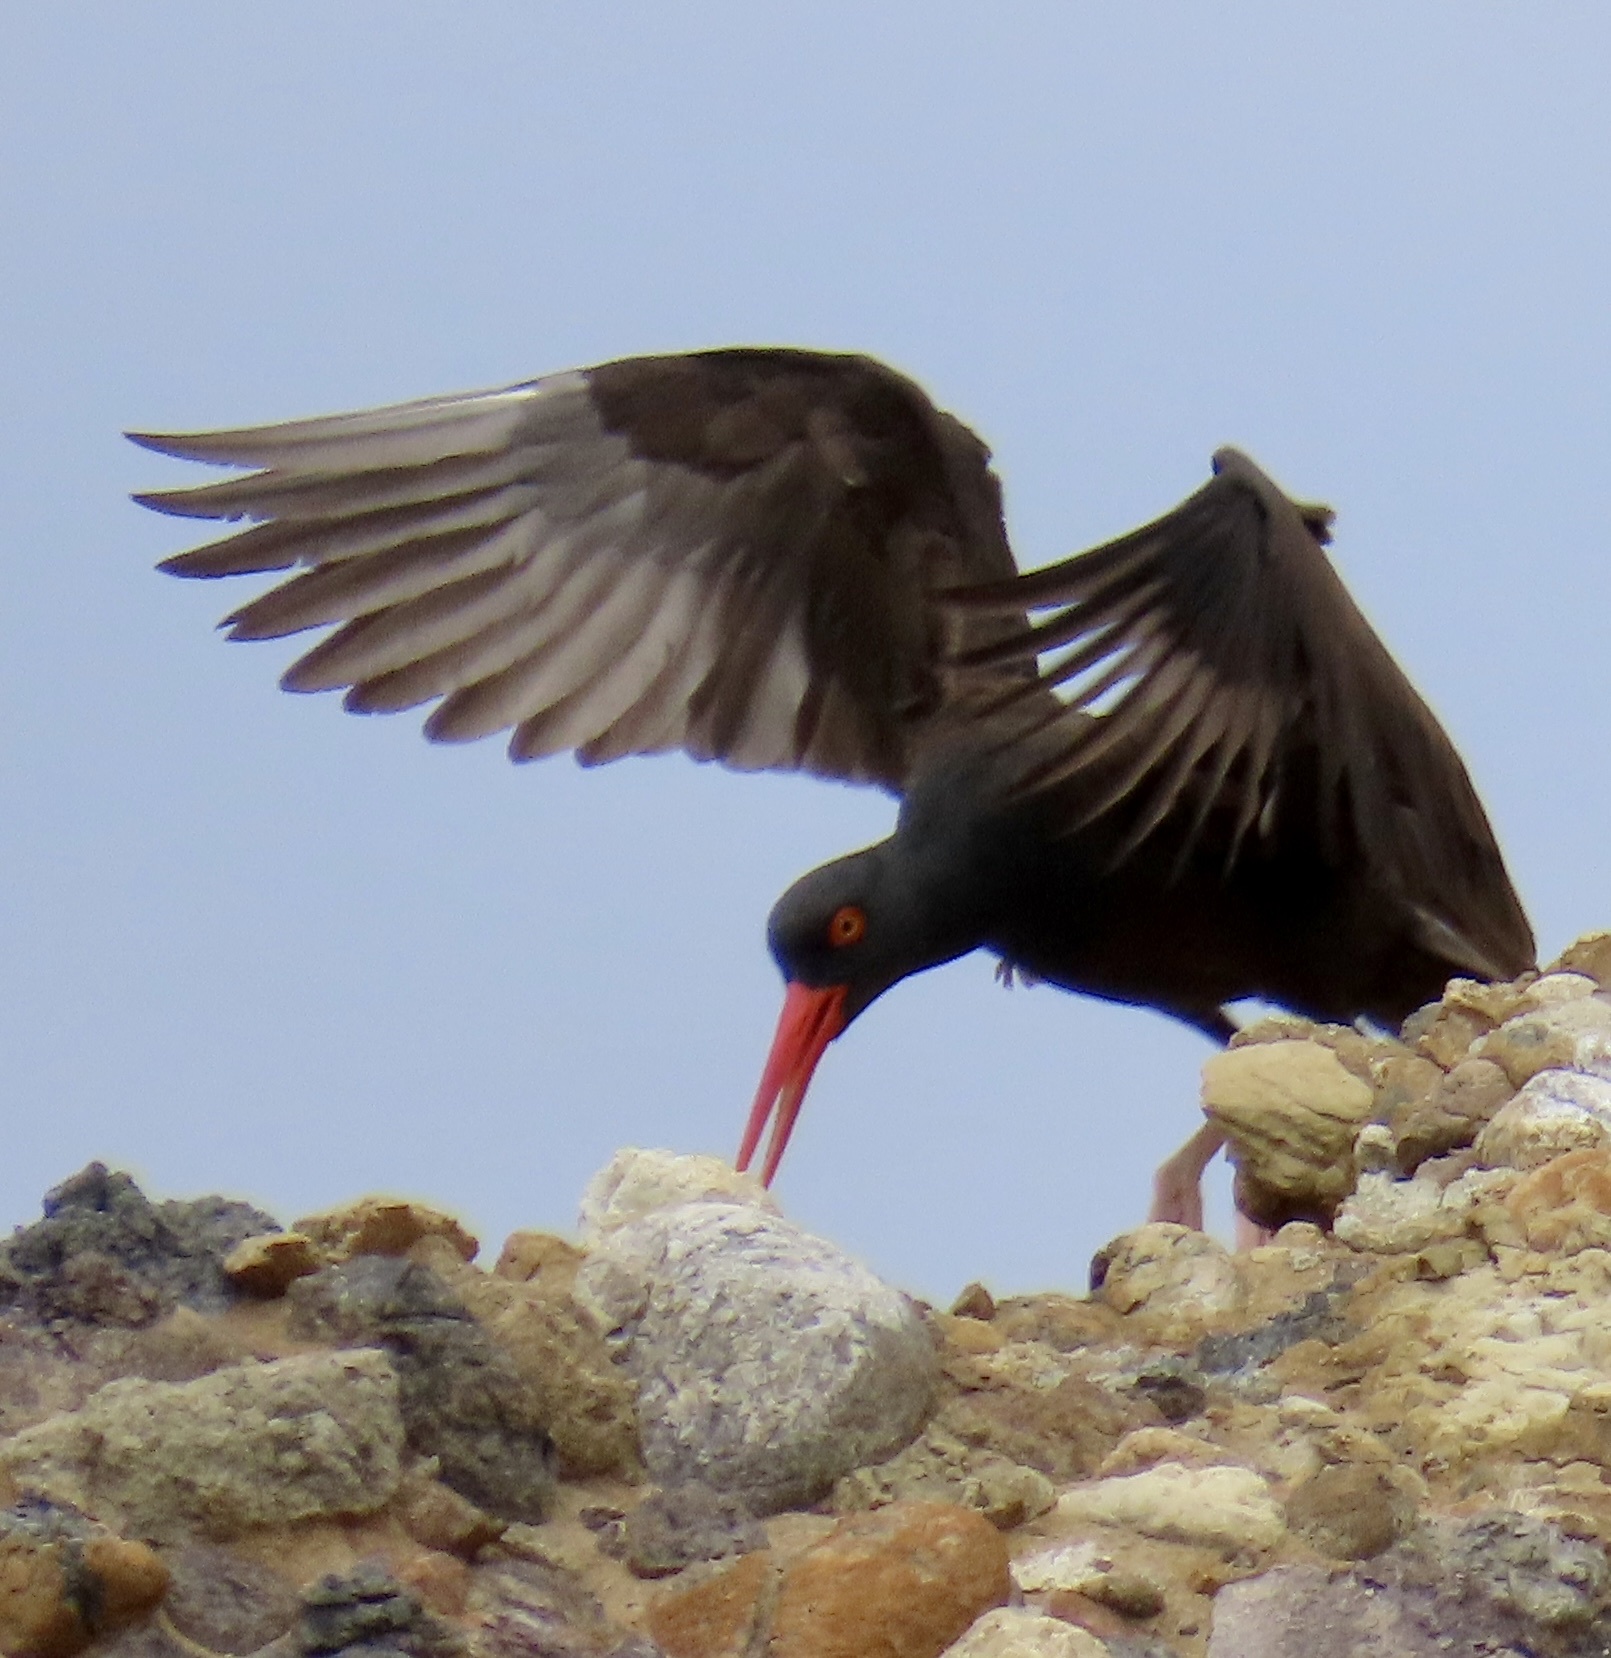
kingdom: Animalia
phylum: Chordata
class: Aves
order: Charadriiformes
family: Haematopodidae
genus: Haematopus
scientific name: Haematopus bachmani
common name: Black oystercatcher
